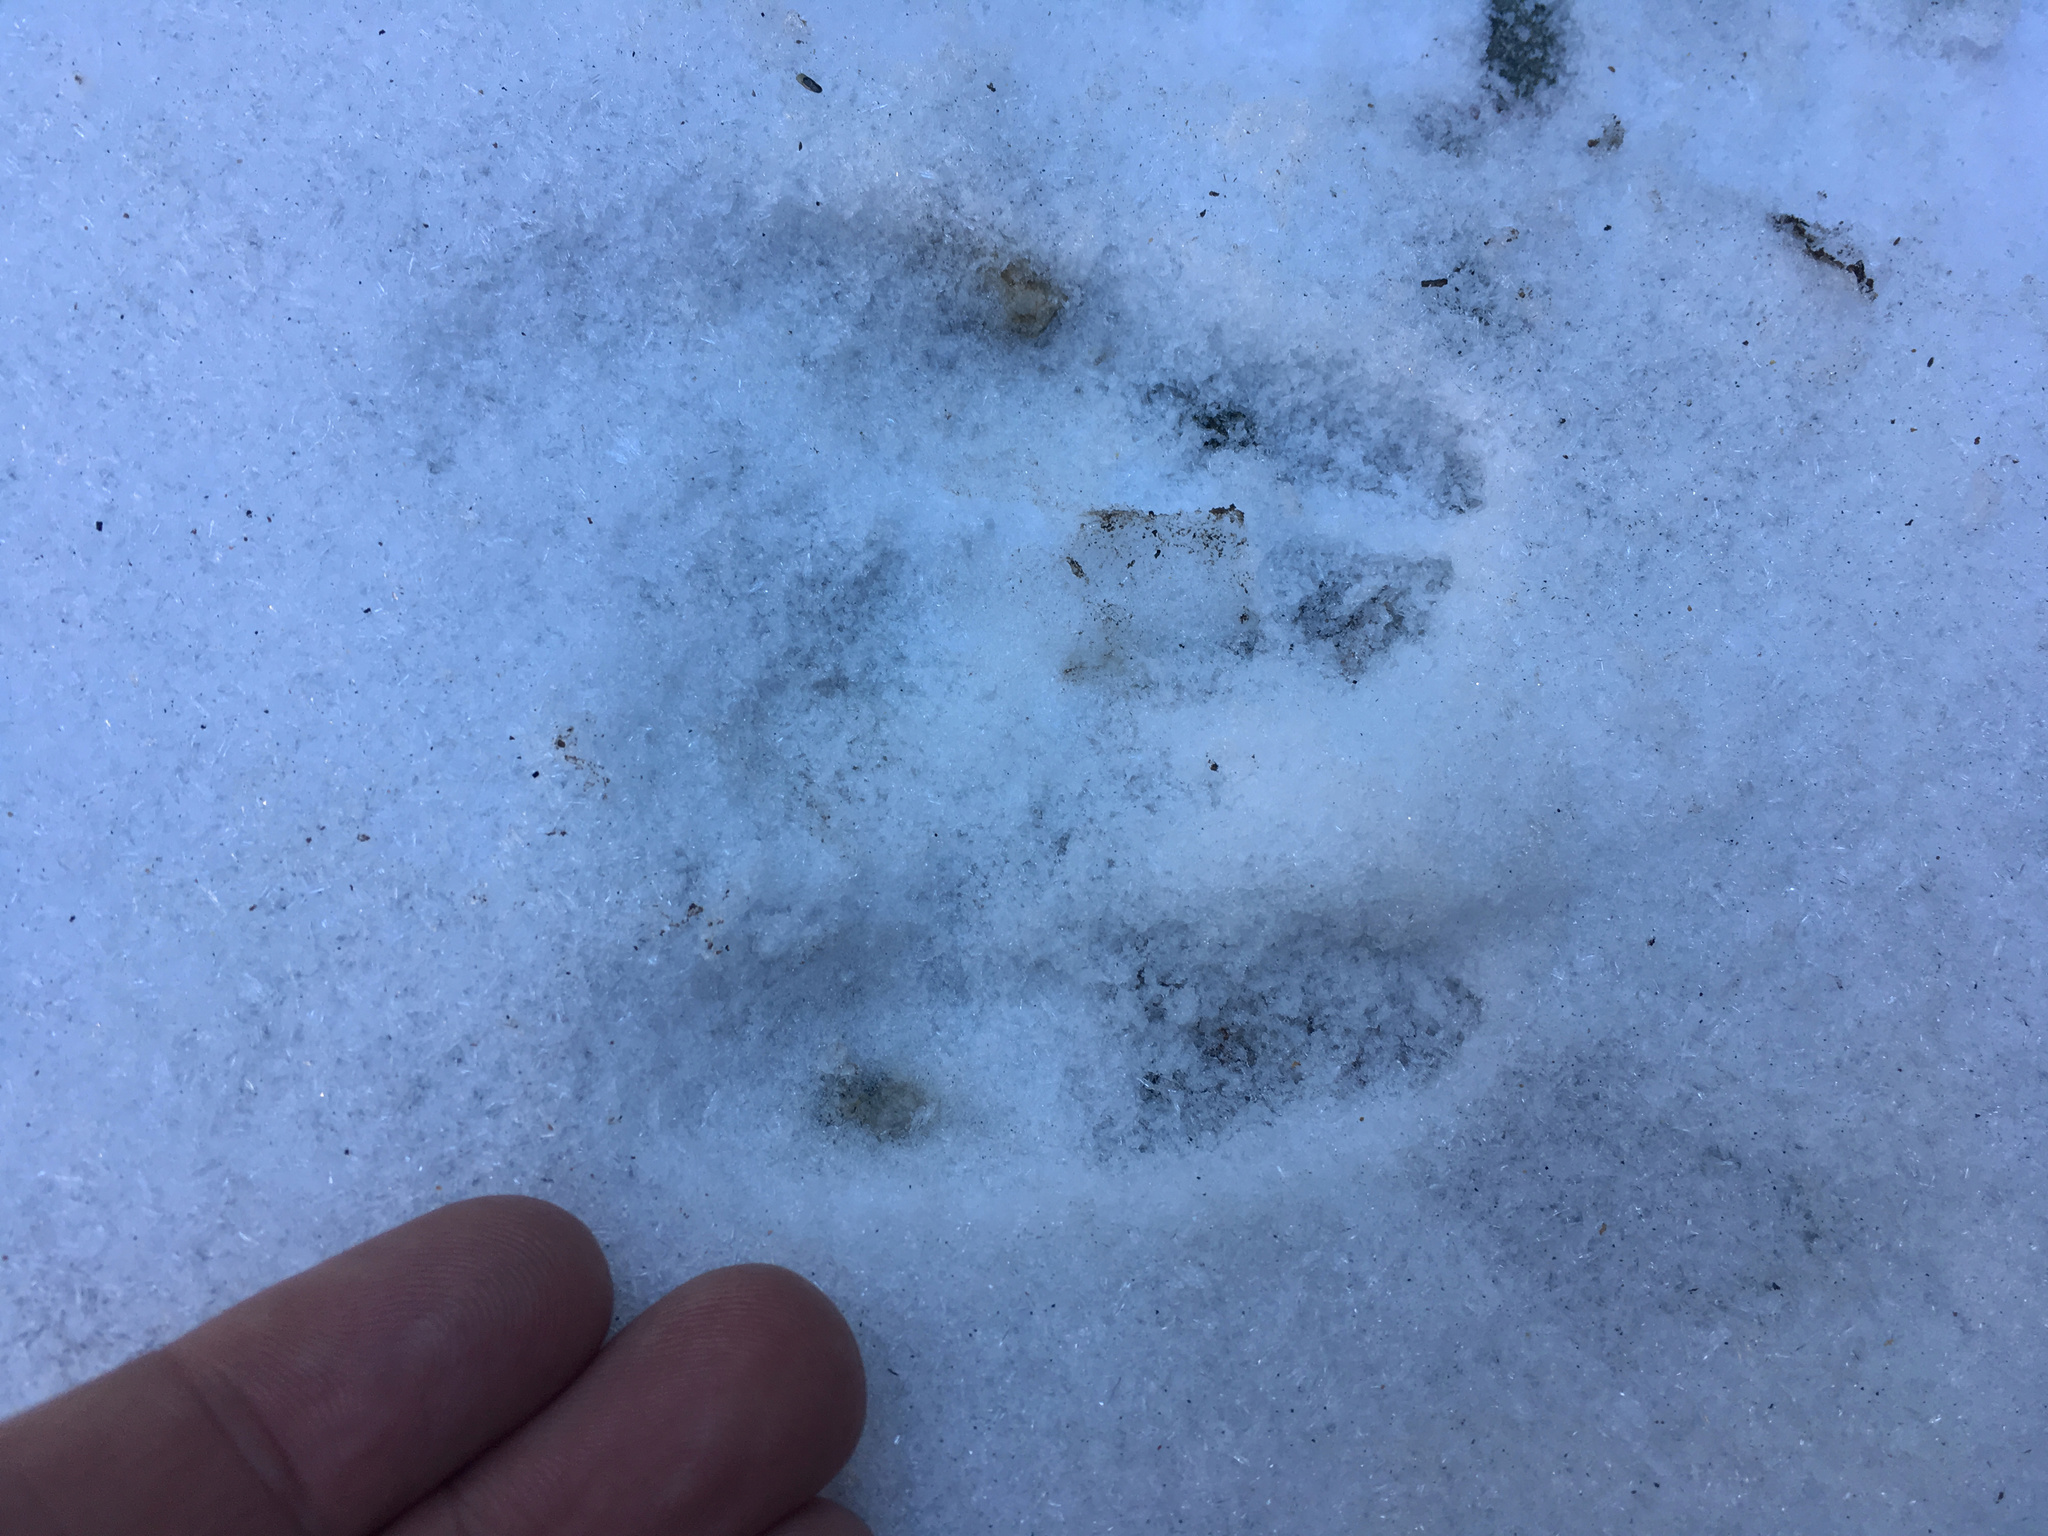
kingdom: Animalia
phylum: Chordata
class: Mammalia
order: Artiodactyla
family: Cervidae
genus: Odocoileus
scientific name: Odocoileus hemionus
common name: Mule deer
